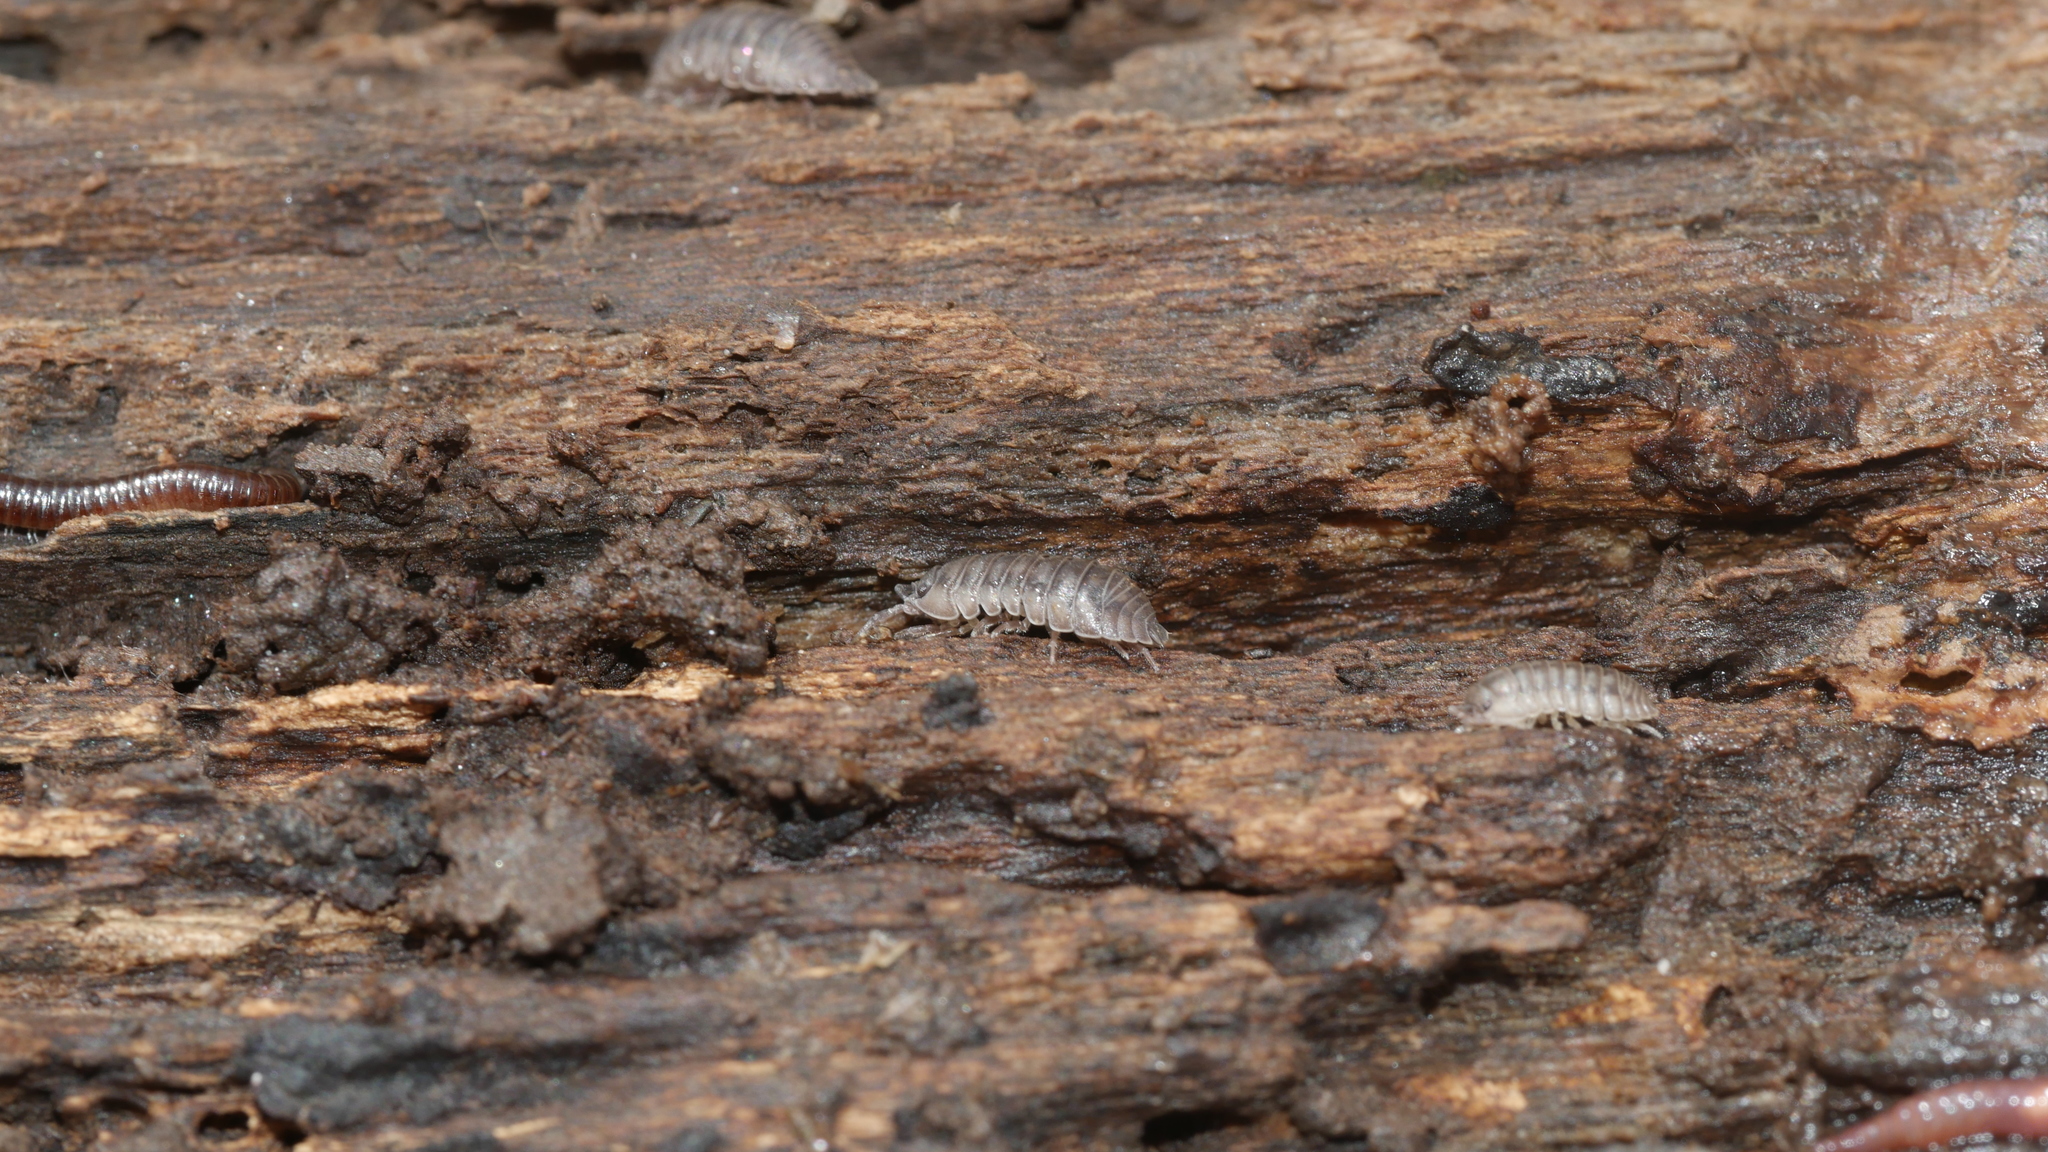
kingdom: Animalia
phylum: Arthropoda
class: Malacostraca
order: Isopoda
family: Armadillidiidae
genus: Armadillidium
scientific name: Armadillidium nasatum
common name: Isopod
